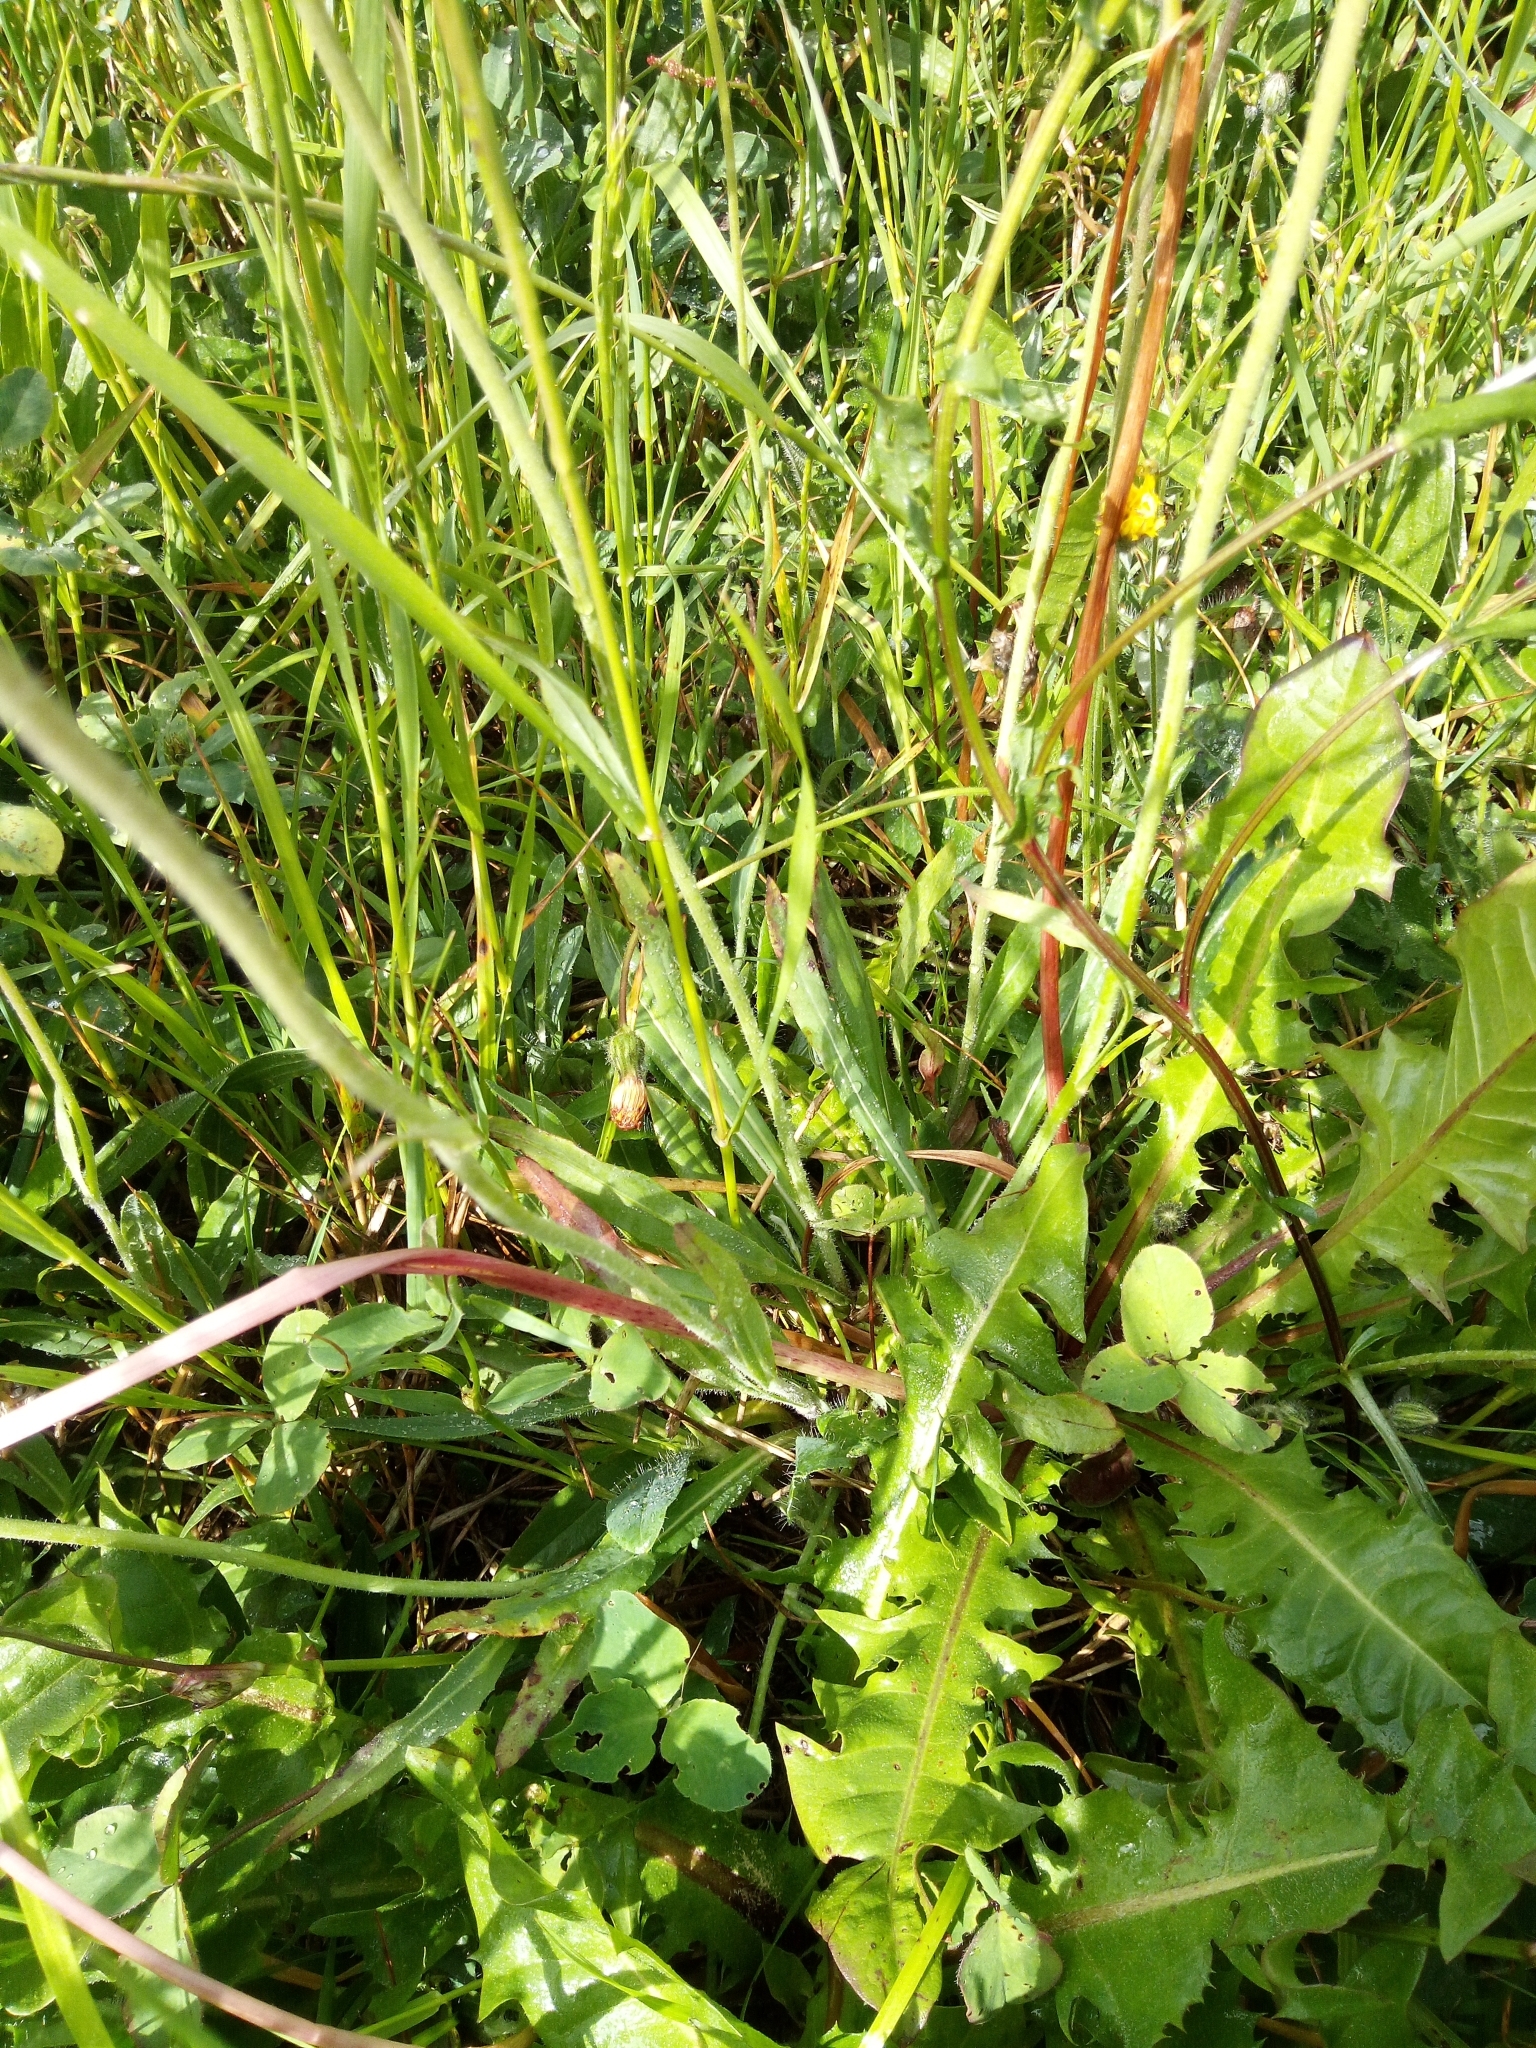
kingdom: Plantae
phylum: Tracheophyta
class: Magnoliopsida
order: Asterales
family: Asteraceae
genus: Pilosella
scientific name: Pilosella glomerata
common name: Queen devil hawkweed
